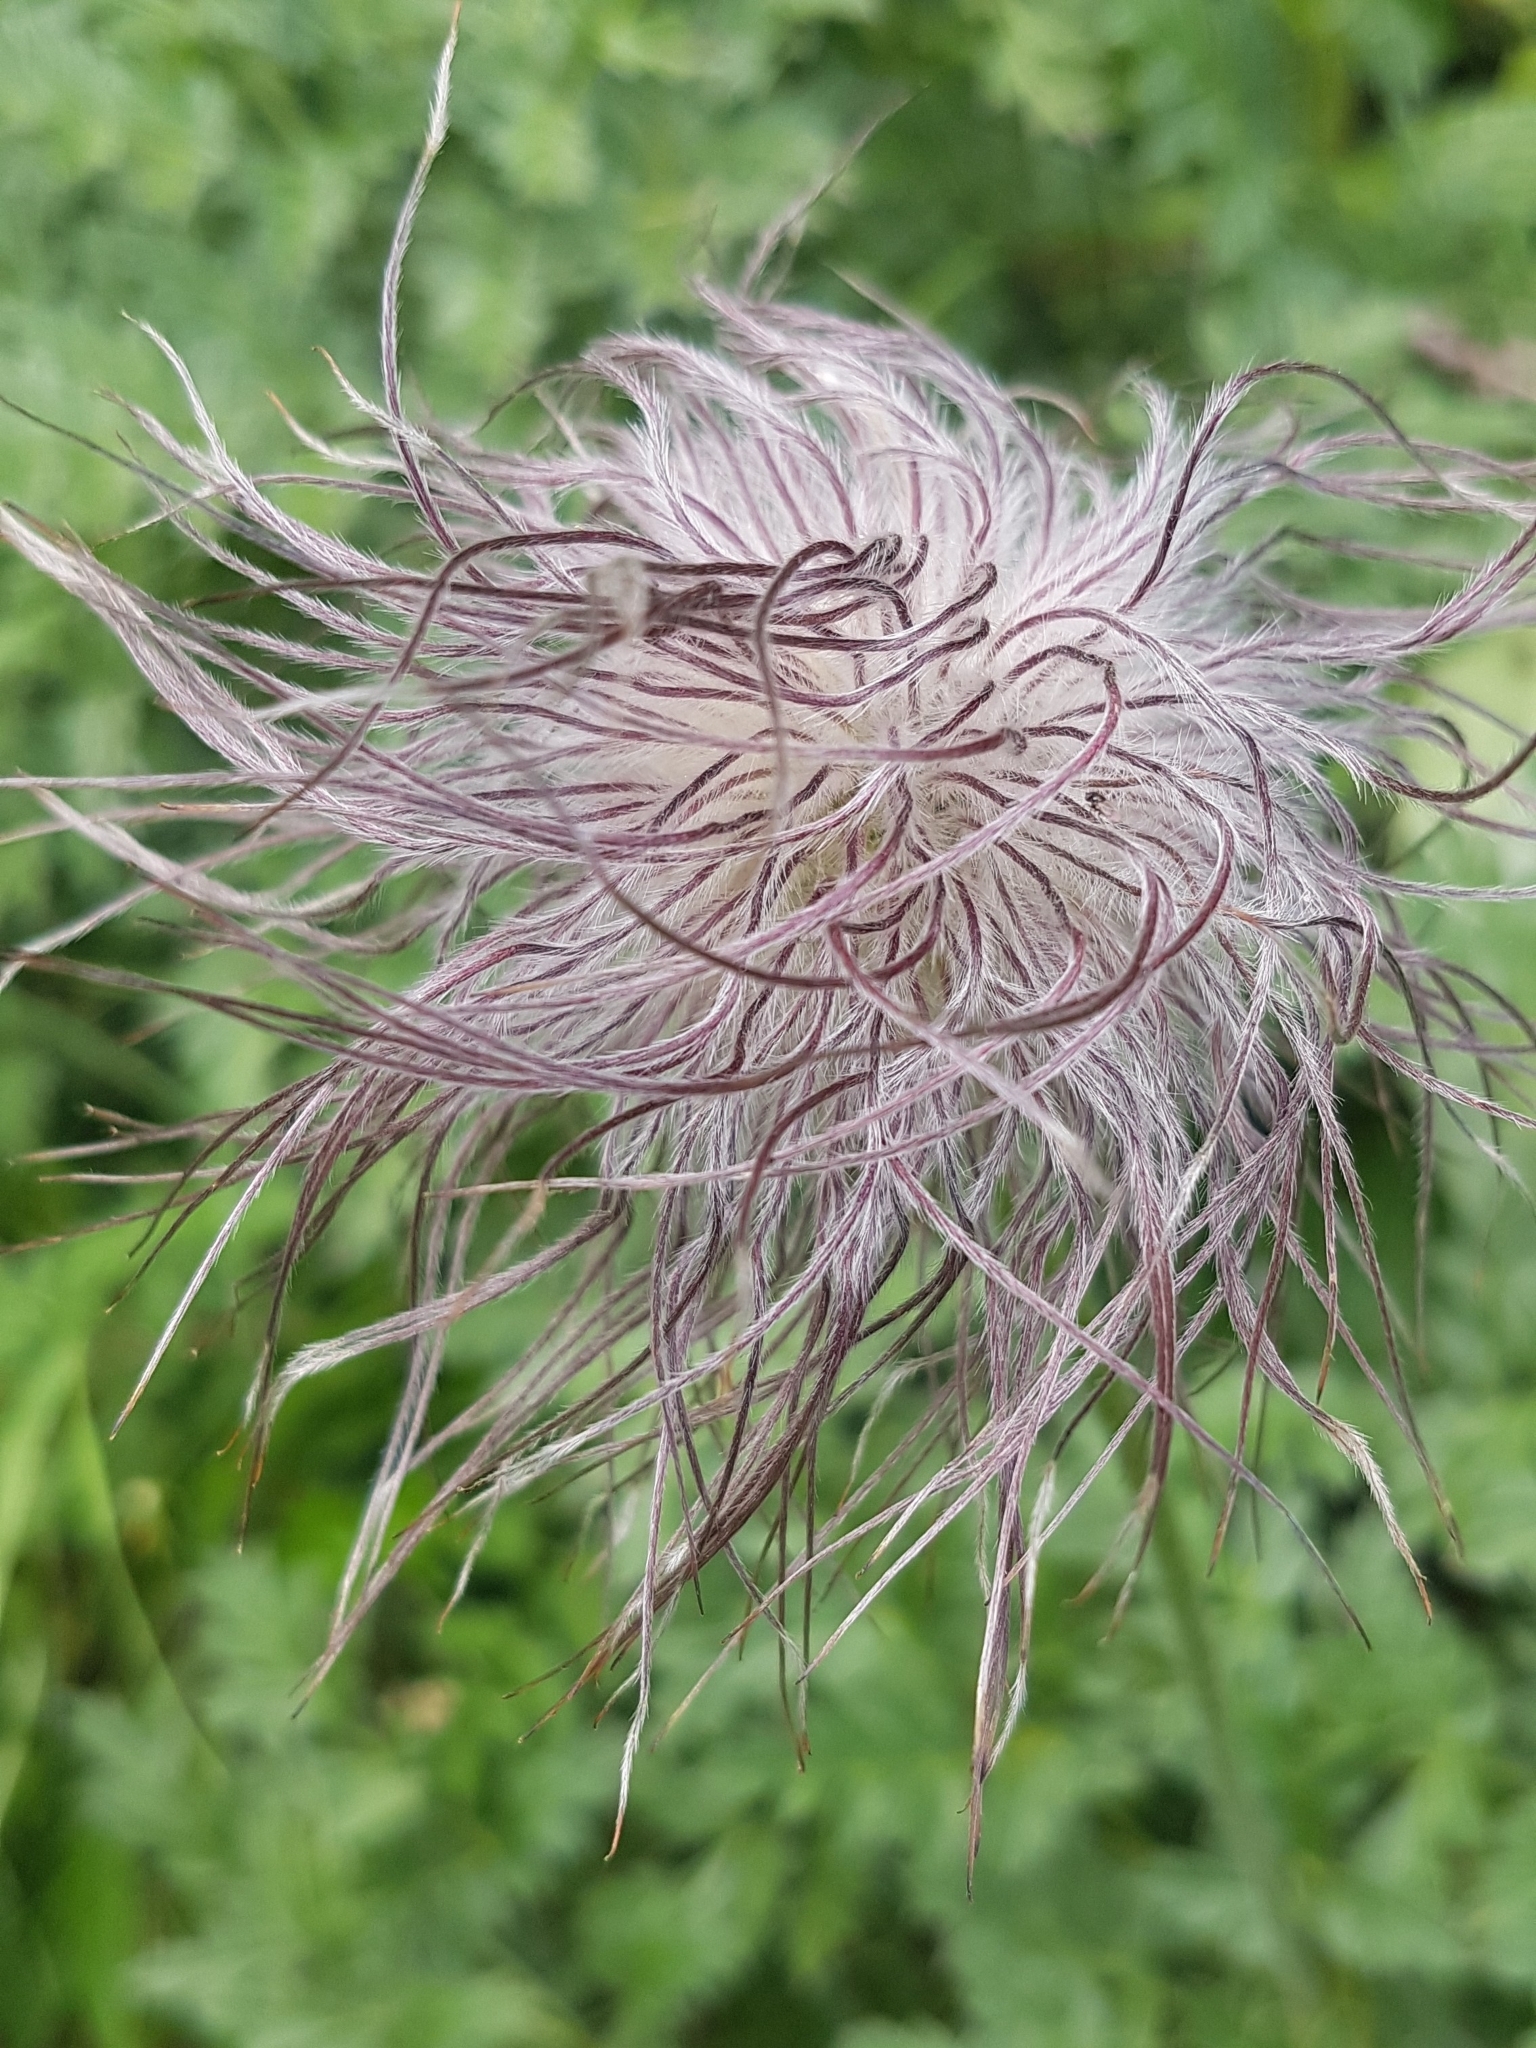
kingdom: Plantae
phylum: Tracheophyta
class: Magnoliopsida
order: Ranunculales
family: Ranunculaceae
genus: Pulsatilla
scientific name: Pulsatilla alpina
